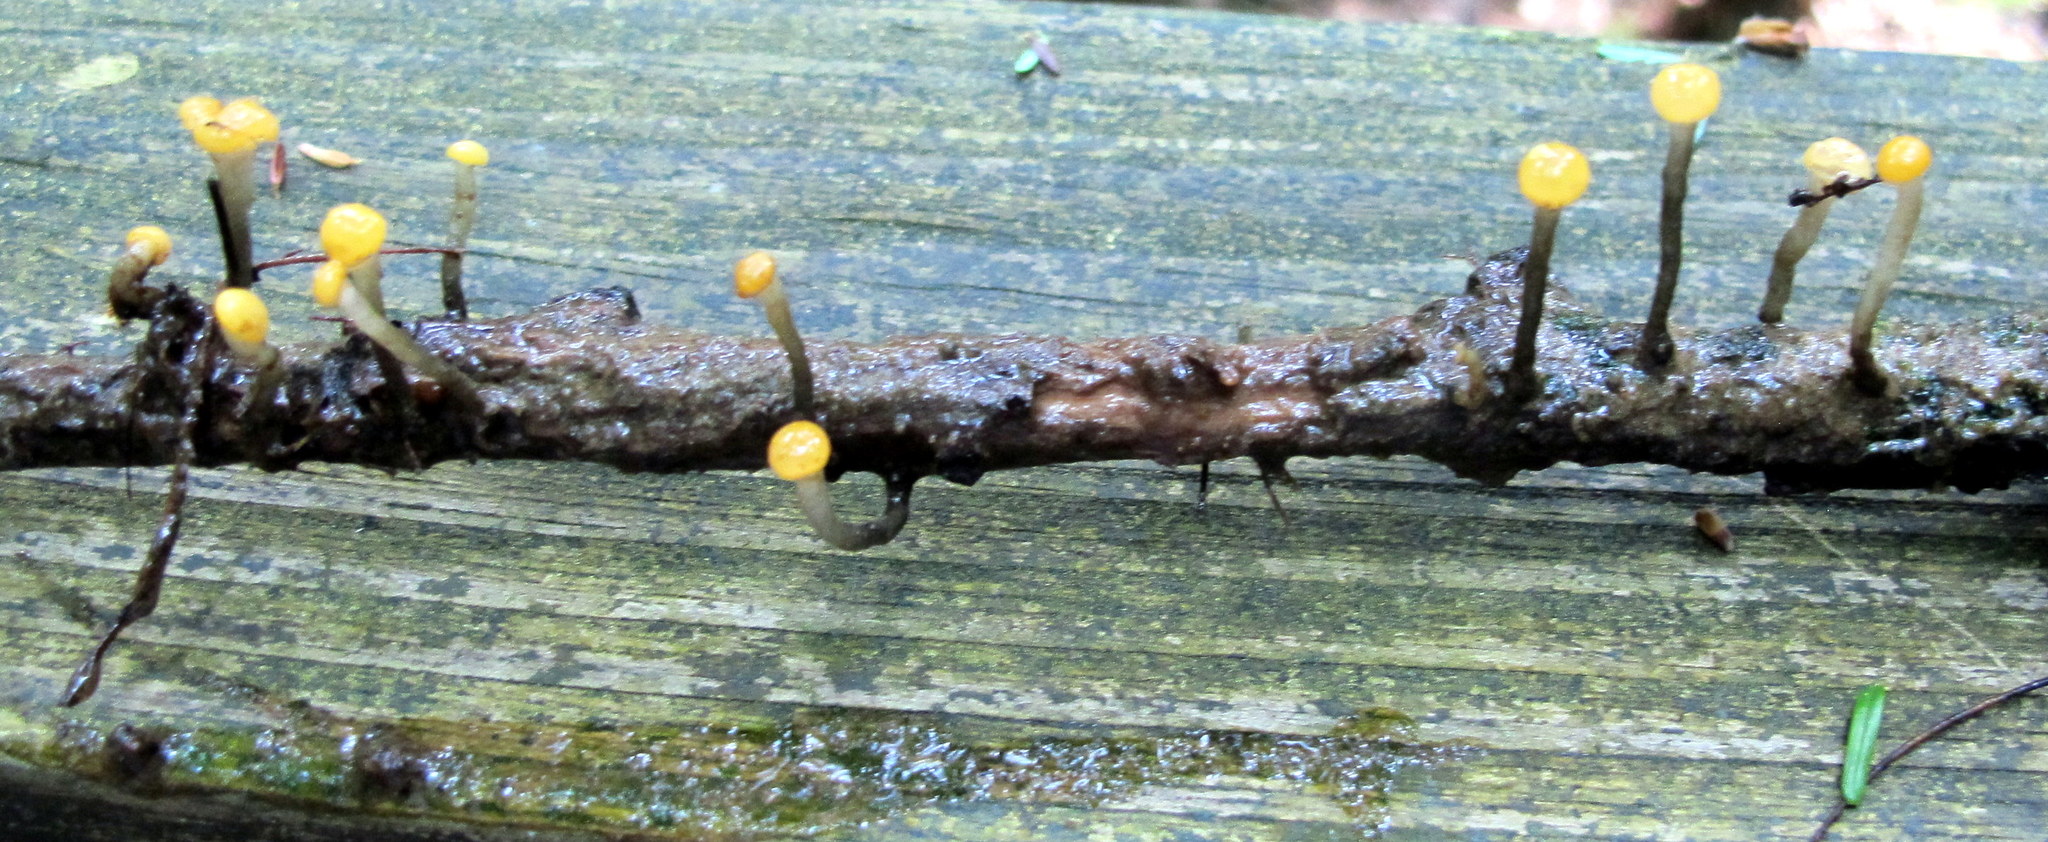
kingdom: Fungi
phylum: Ascomycota
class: Leotiomycetes
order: Helotiales
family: Vibrisseaceae
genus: Vibrissea
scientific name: Vibrissea truncorum
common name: Stream beacon
